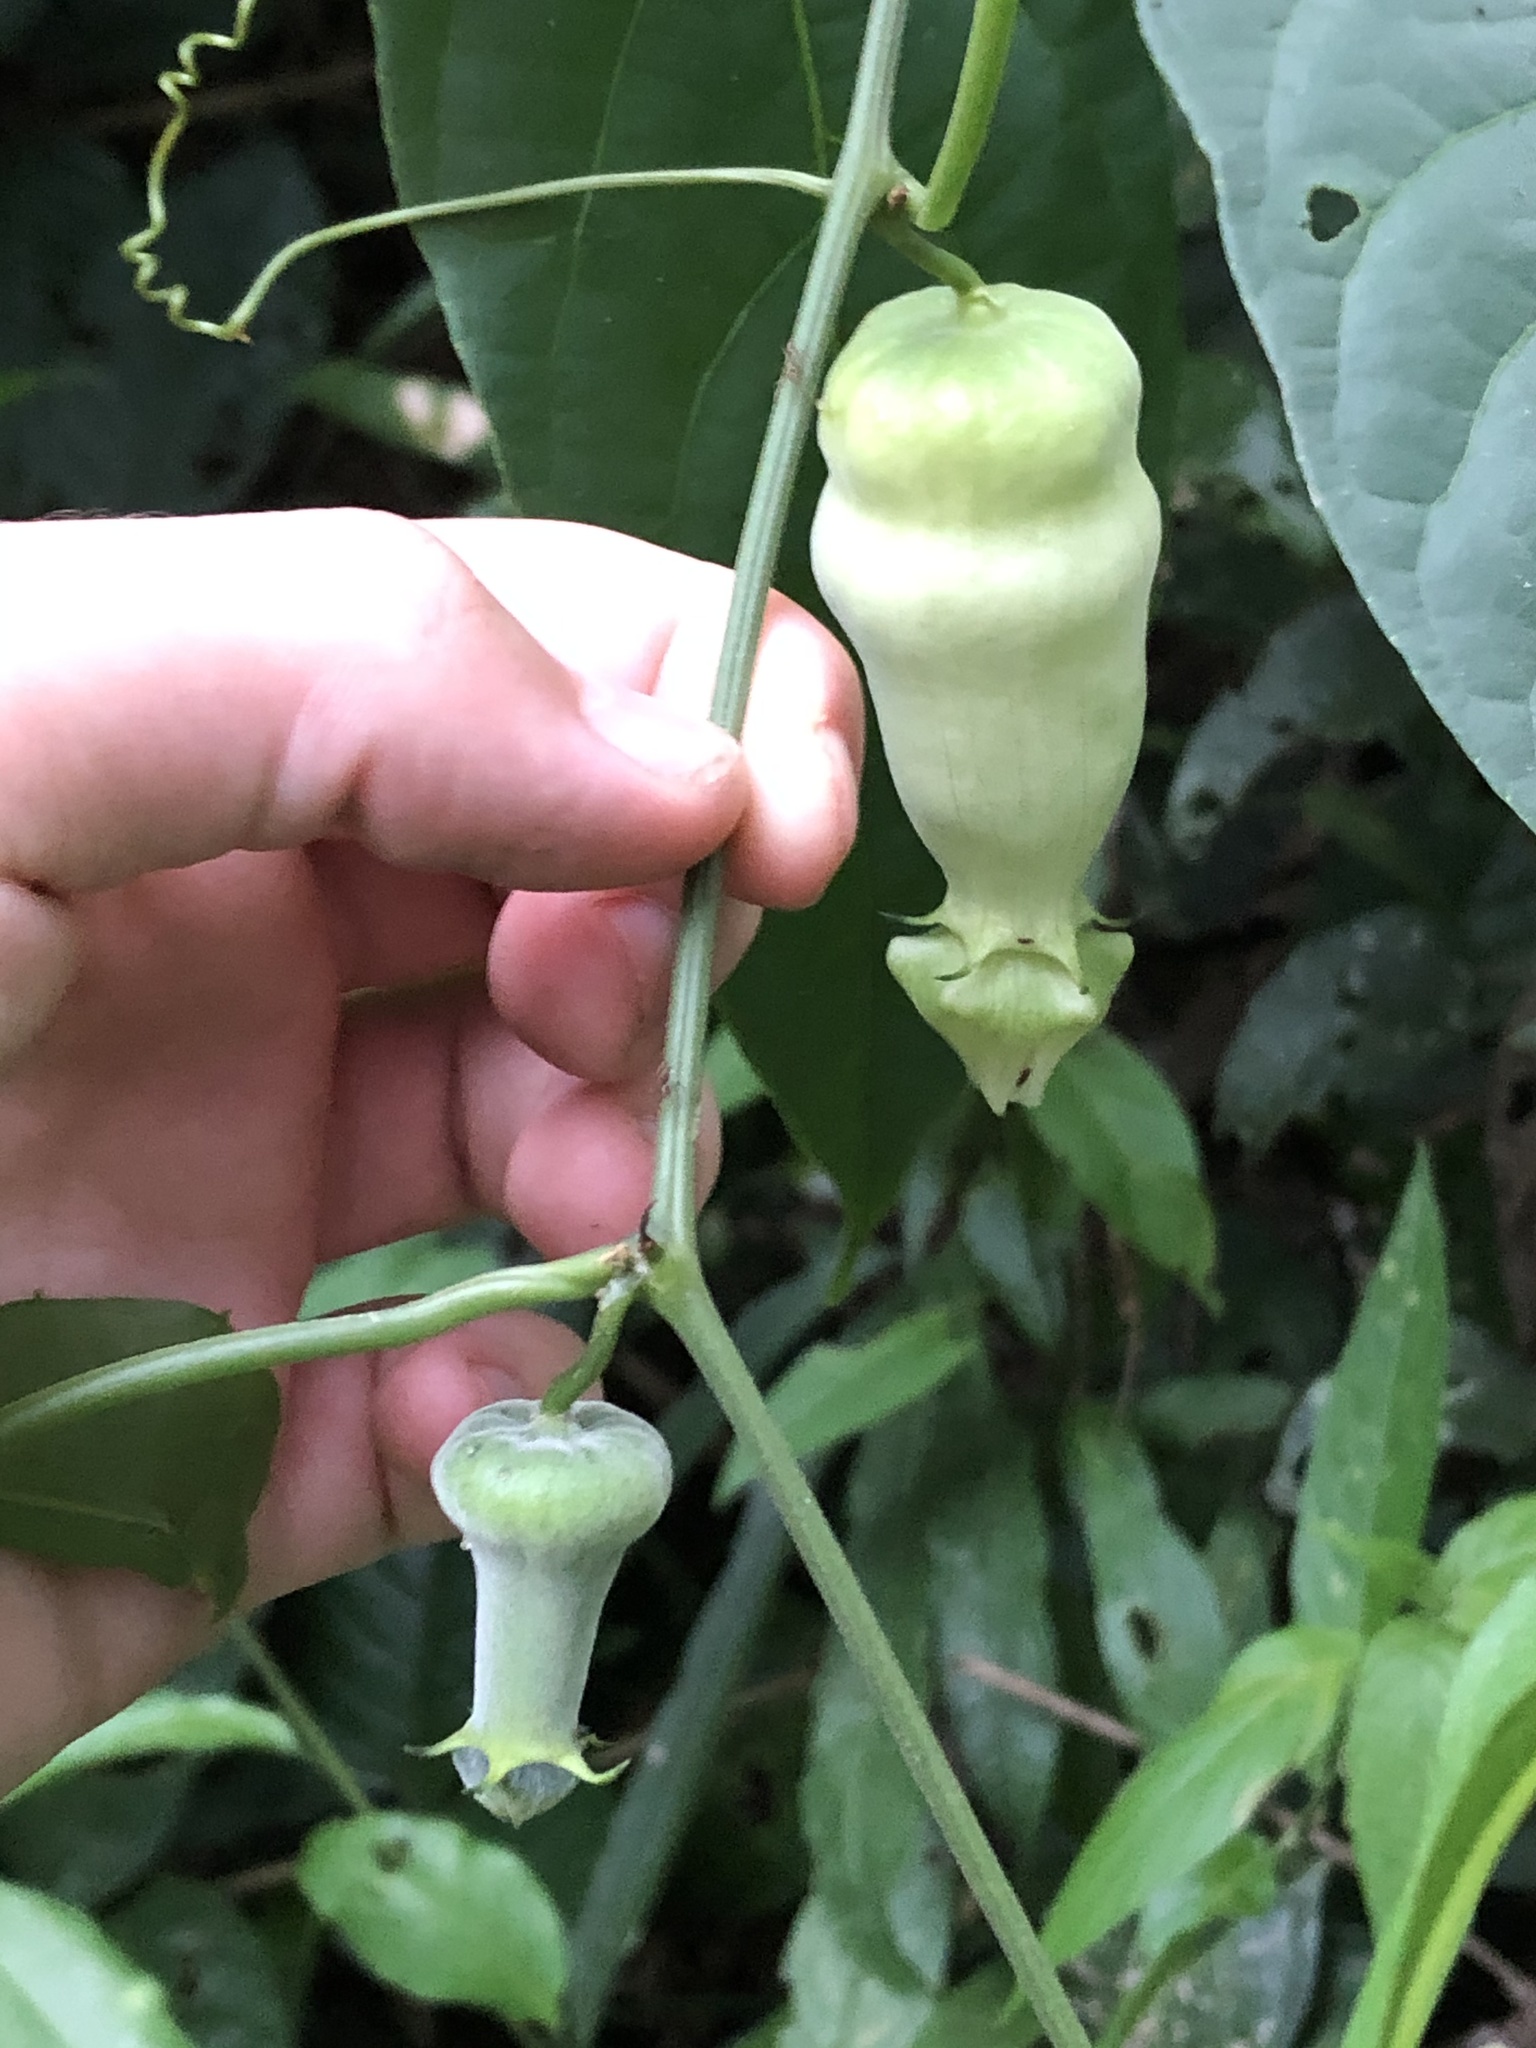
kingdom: Plantae
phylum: Tracheophyta
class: Magnoliopsida
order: Cucurbitales
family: Cucurbitaceae
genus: Cayaponia
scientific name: Cayaponia amazonica
